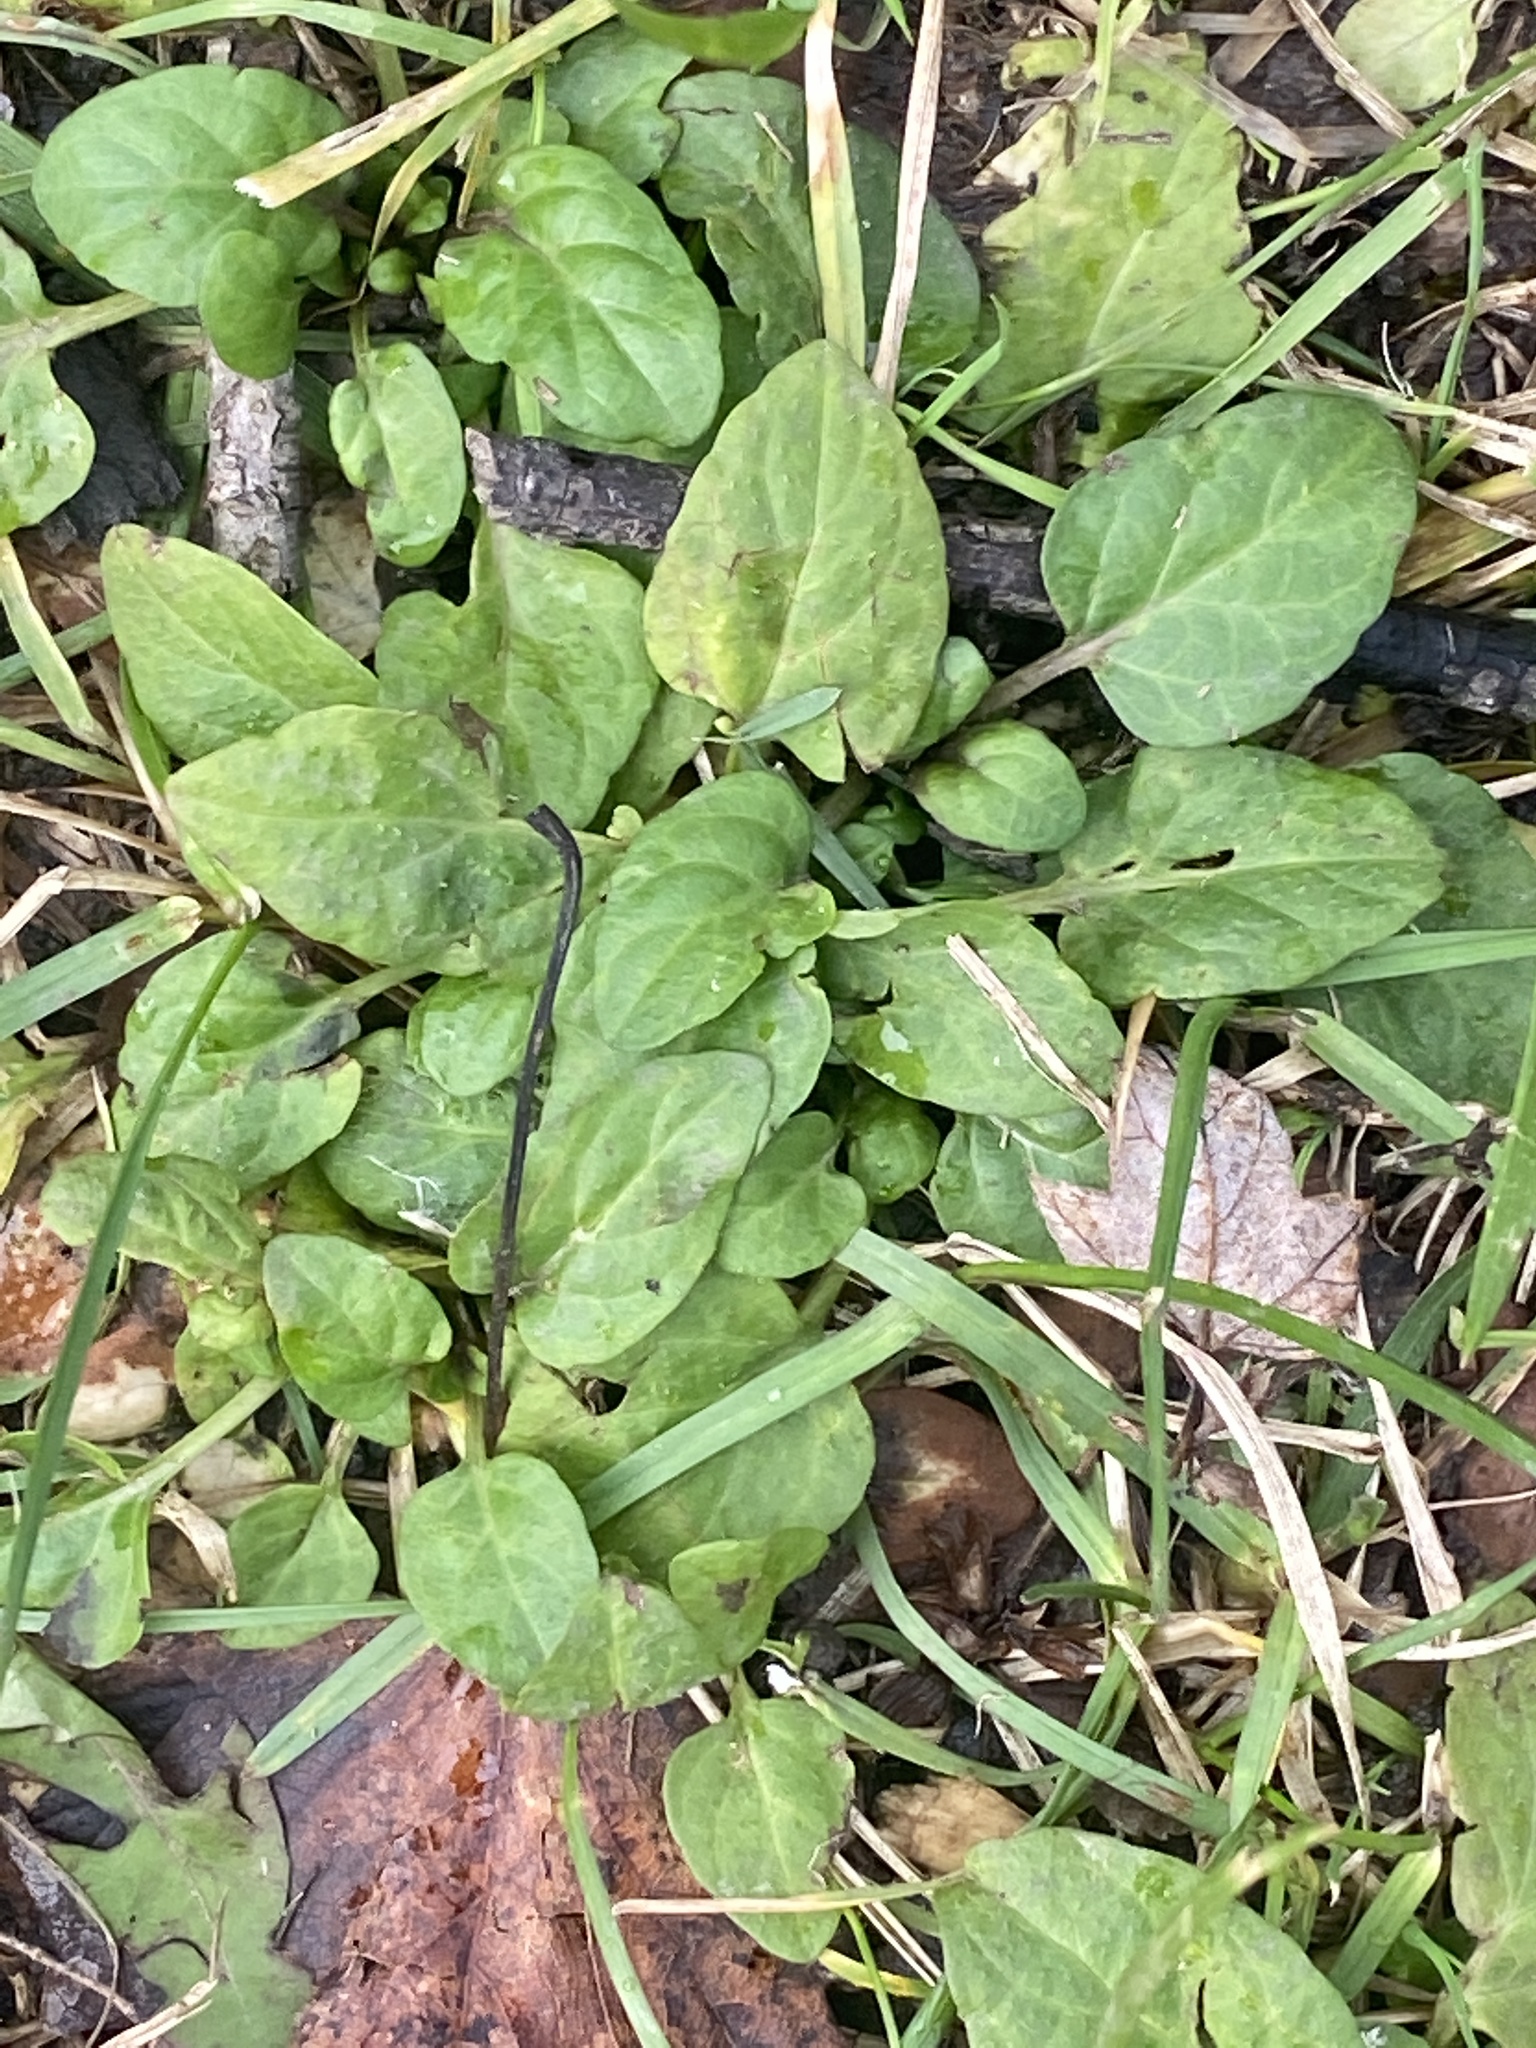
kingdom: Plantae
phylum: Tracheophyta
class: Magnoliopsida
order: Lamiales
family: Lamiaceae
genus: Prunella
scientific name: Prunella vulgaris
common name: Heal-all
